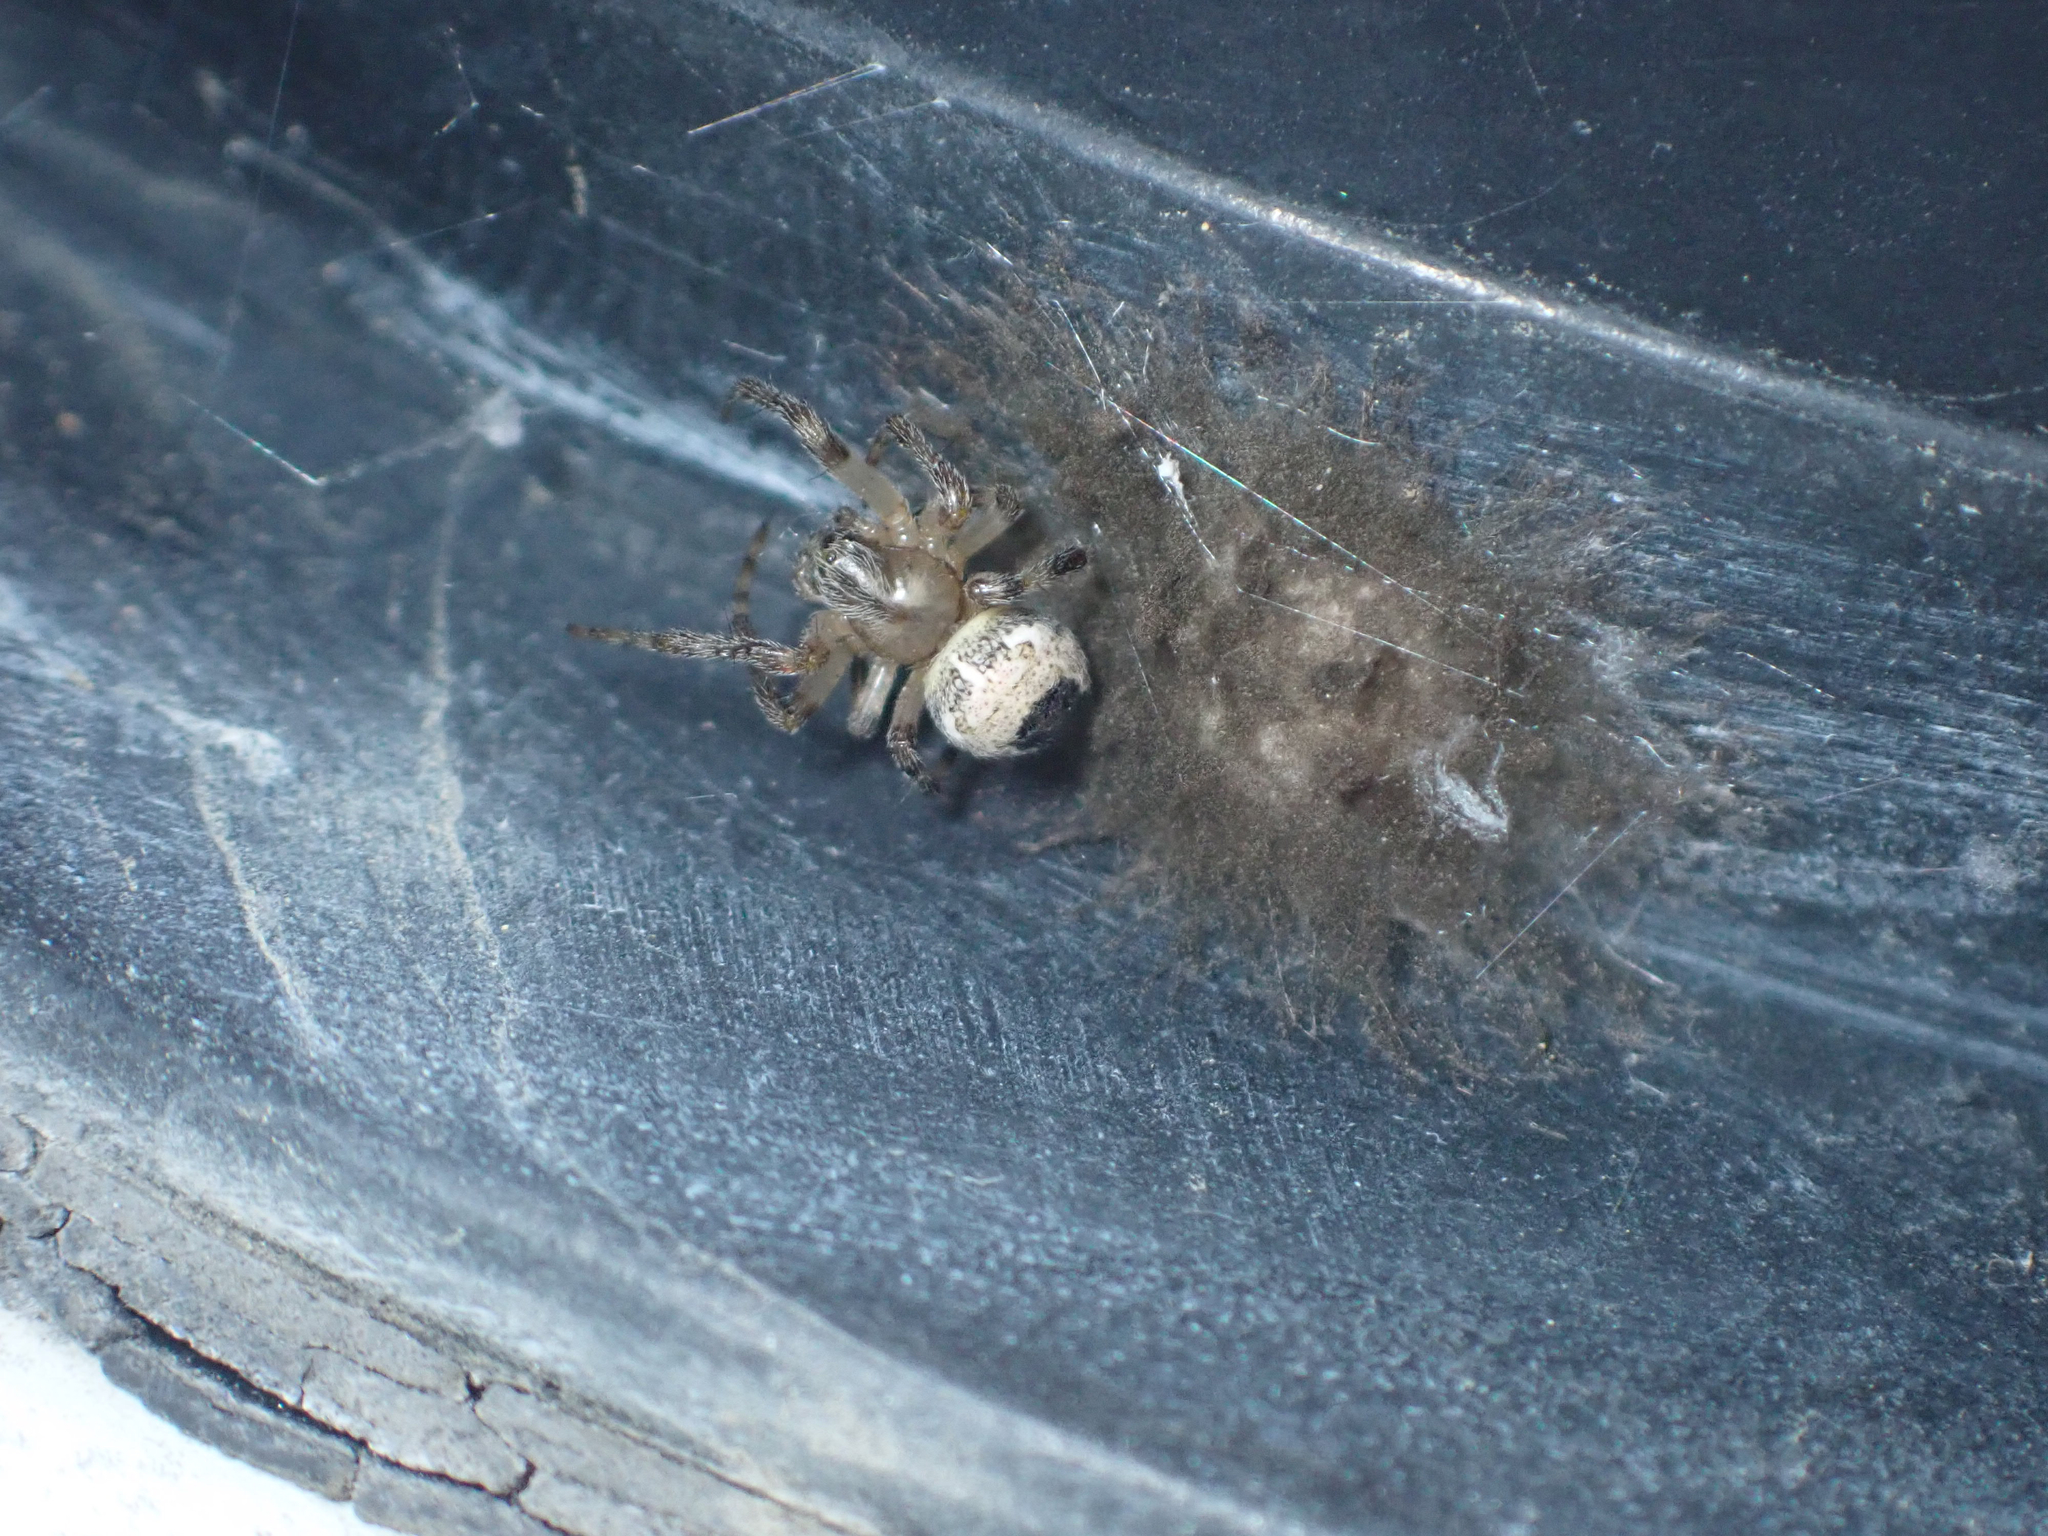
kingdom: Animalia
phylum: Arthropoda
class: Arachnida
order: Araneae
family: Araneidae
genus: Araneus
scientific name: Araneus marmoreus
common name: Marbled orbweaver
